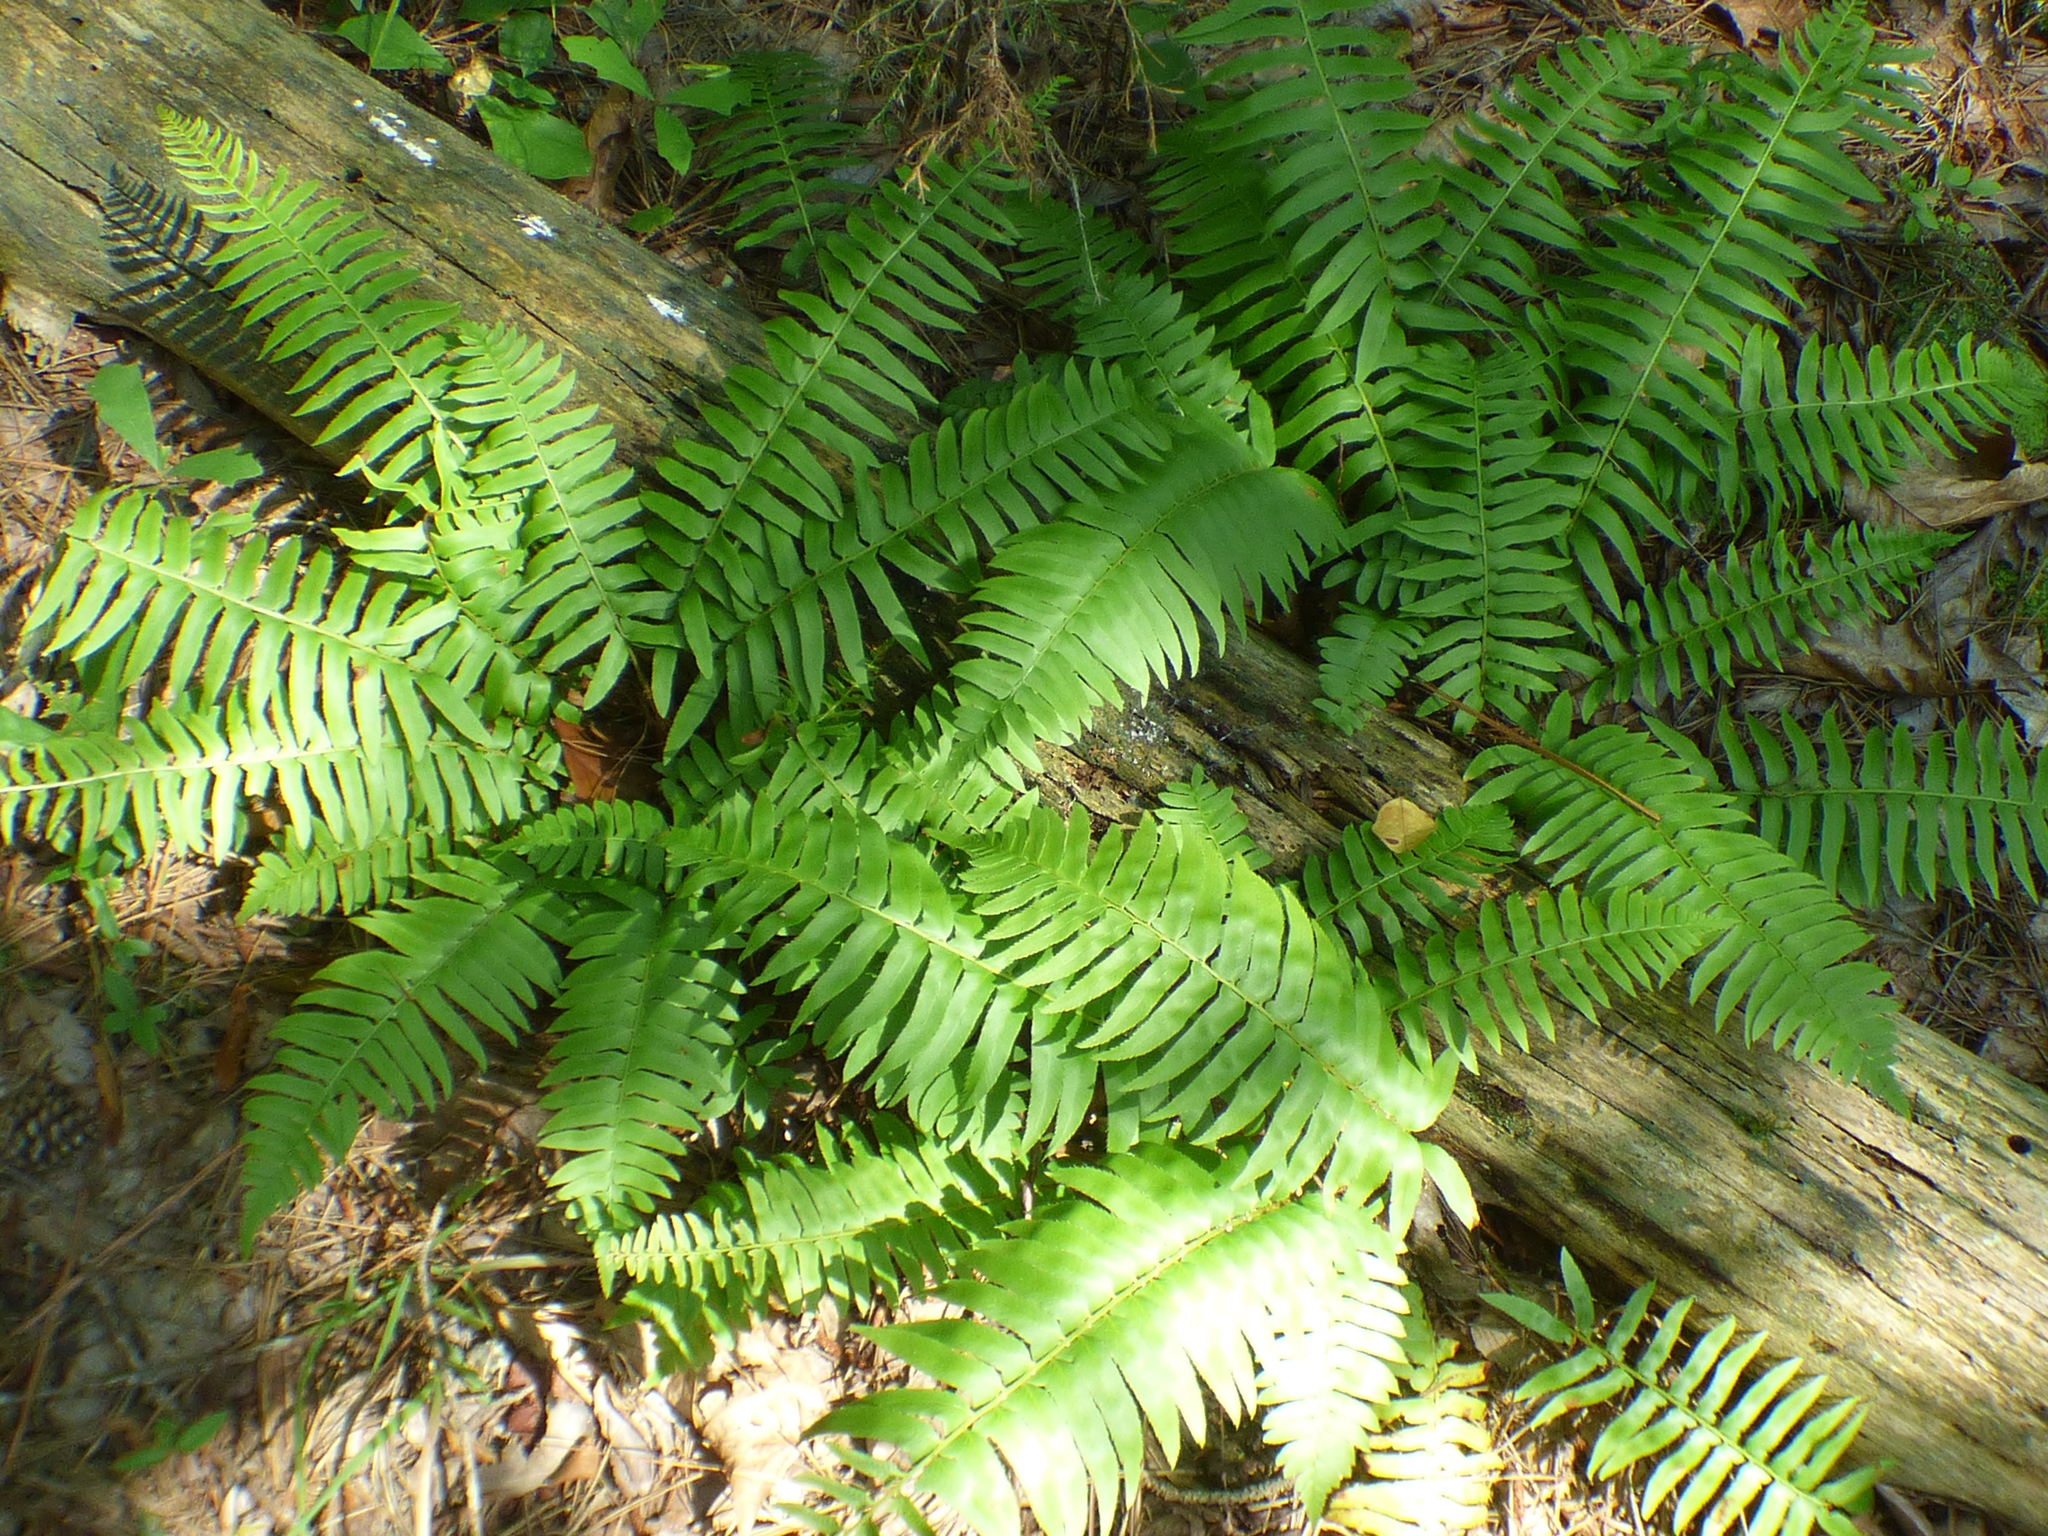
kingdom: Plantae
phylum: Tracheophyta
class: Polypodiopsida
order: Polypodiales
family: Dryopteridaceae
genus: Polystichum
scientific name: Polystichum acrostichoides
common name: Christmas fern
